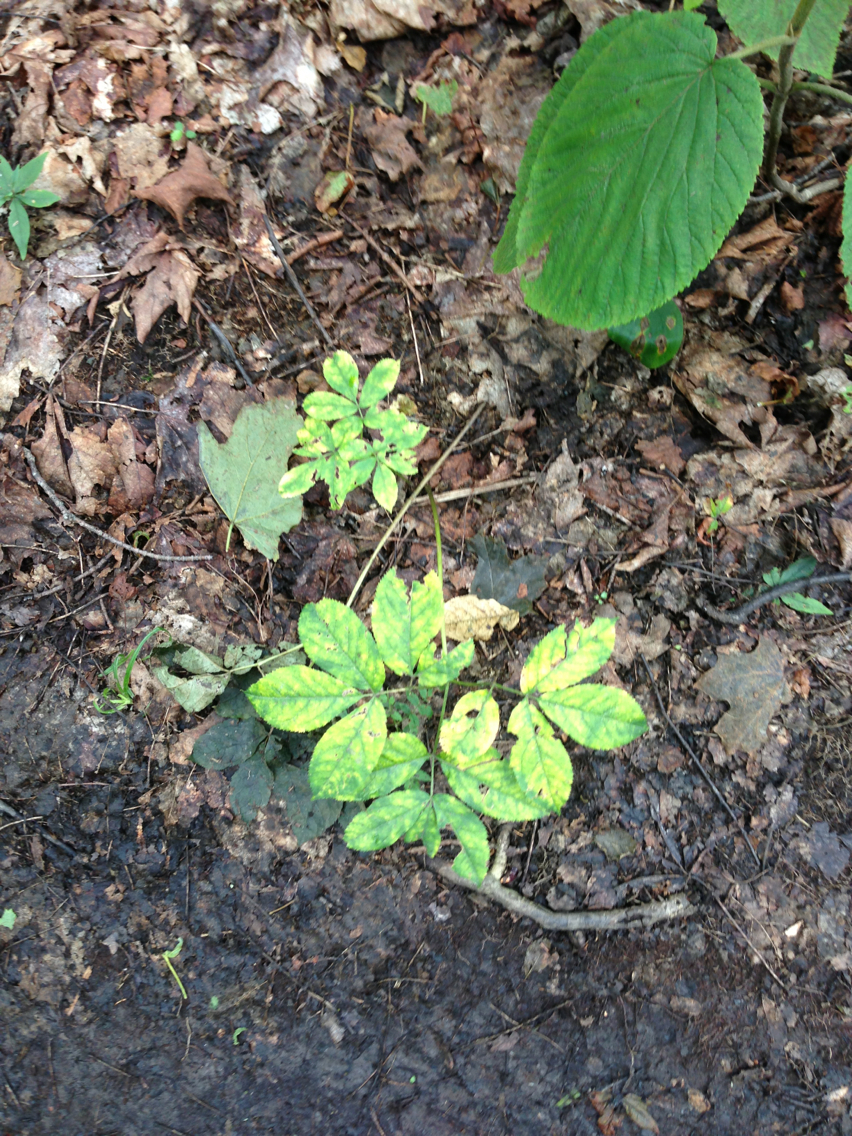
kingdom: Plantae
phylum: Tracheophyta
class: Magnoliopsida
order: Apiales
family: Araliaceae
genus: Aralia
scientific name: Aralia nudicaulis
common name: Wild sarsaparilla
